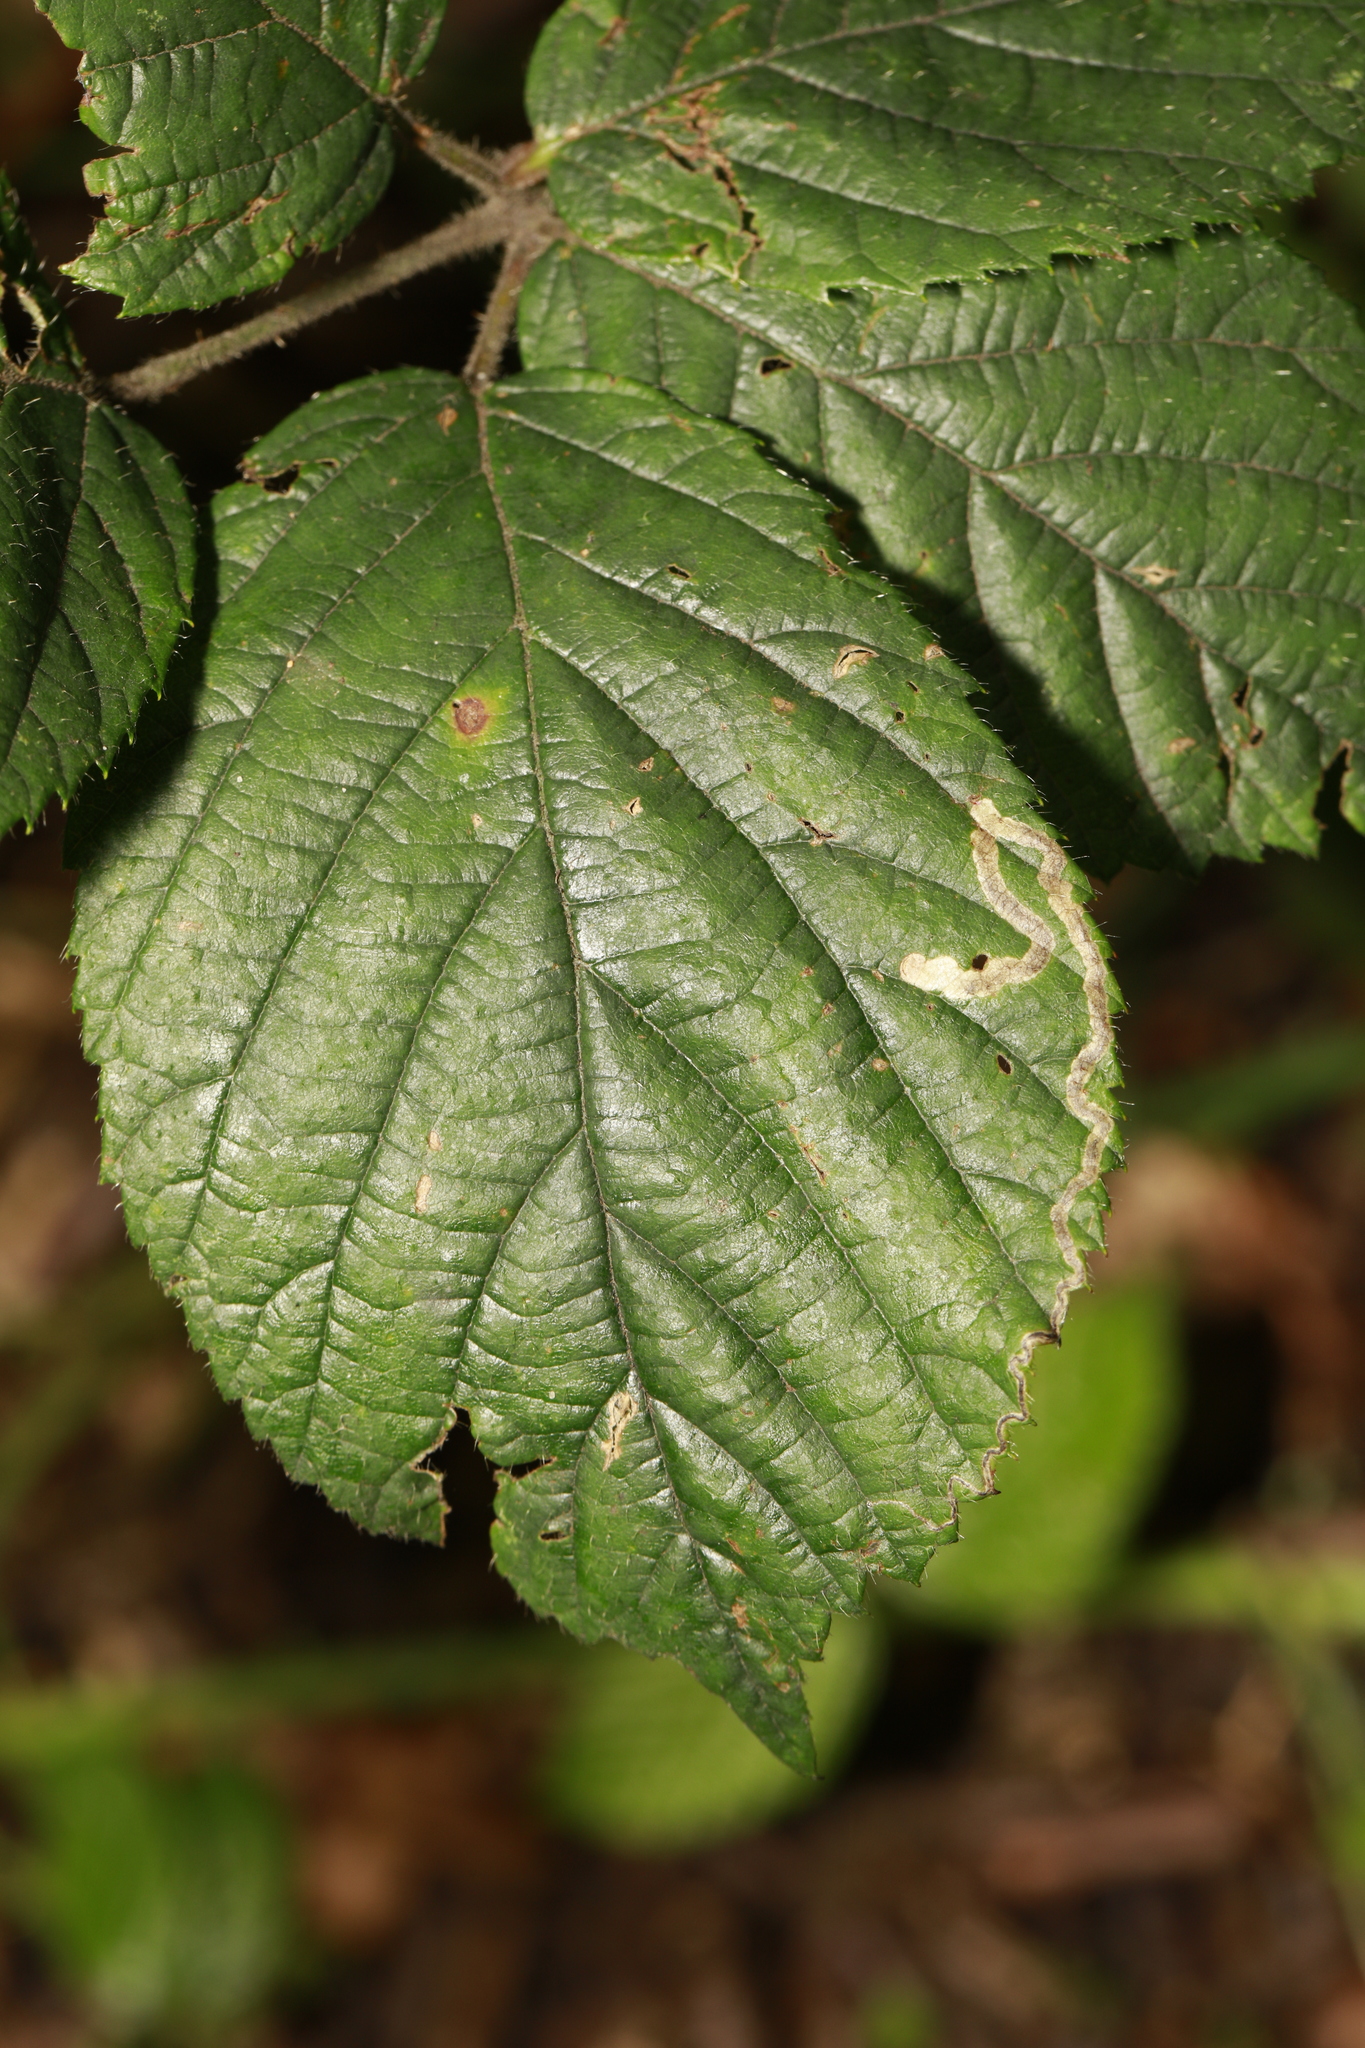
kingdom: Animalia
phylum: Arthropoda
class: Insecta
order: Lepidoptera
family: Nepticulidae
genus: Stigmella
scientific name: Stigmella aurella
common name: Golden pigmy
